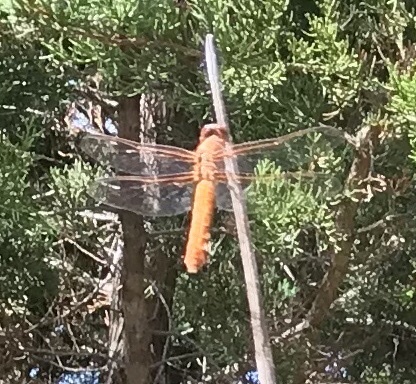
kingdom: Animalia
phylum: Arthropoda
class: Insecta
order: Odonata
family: Libellulidae
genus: Libellula
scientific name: Libellula croceipennis
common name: Neon skimmer
